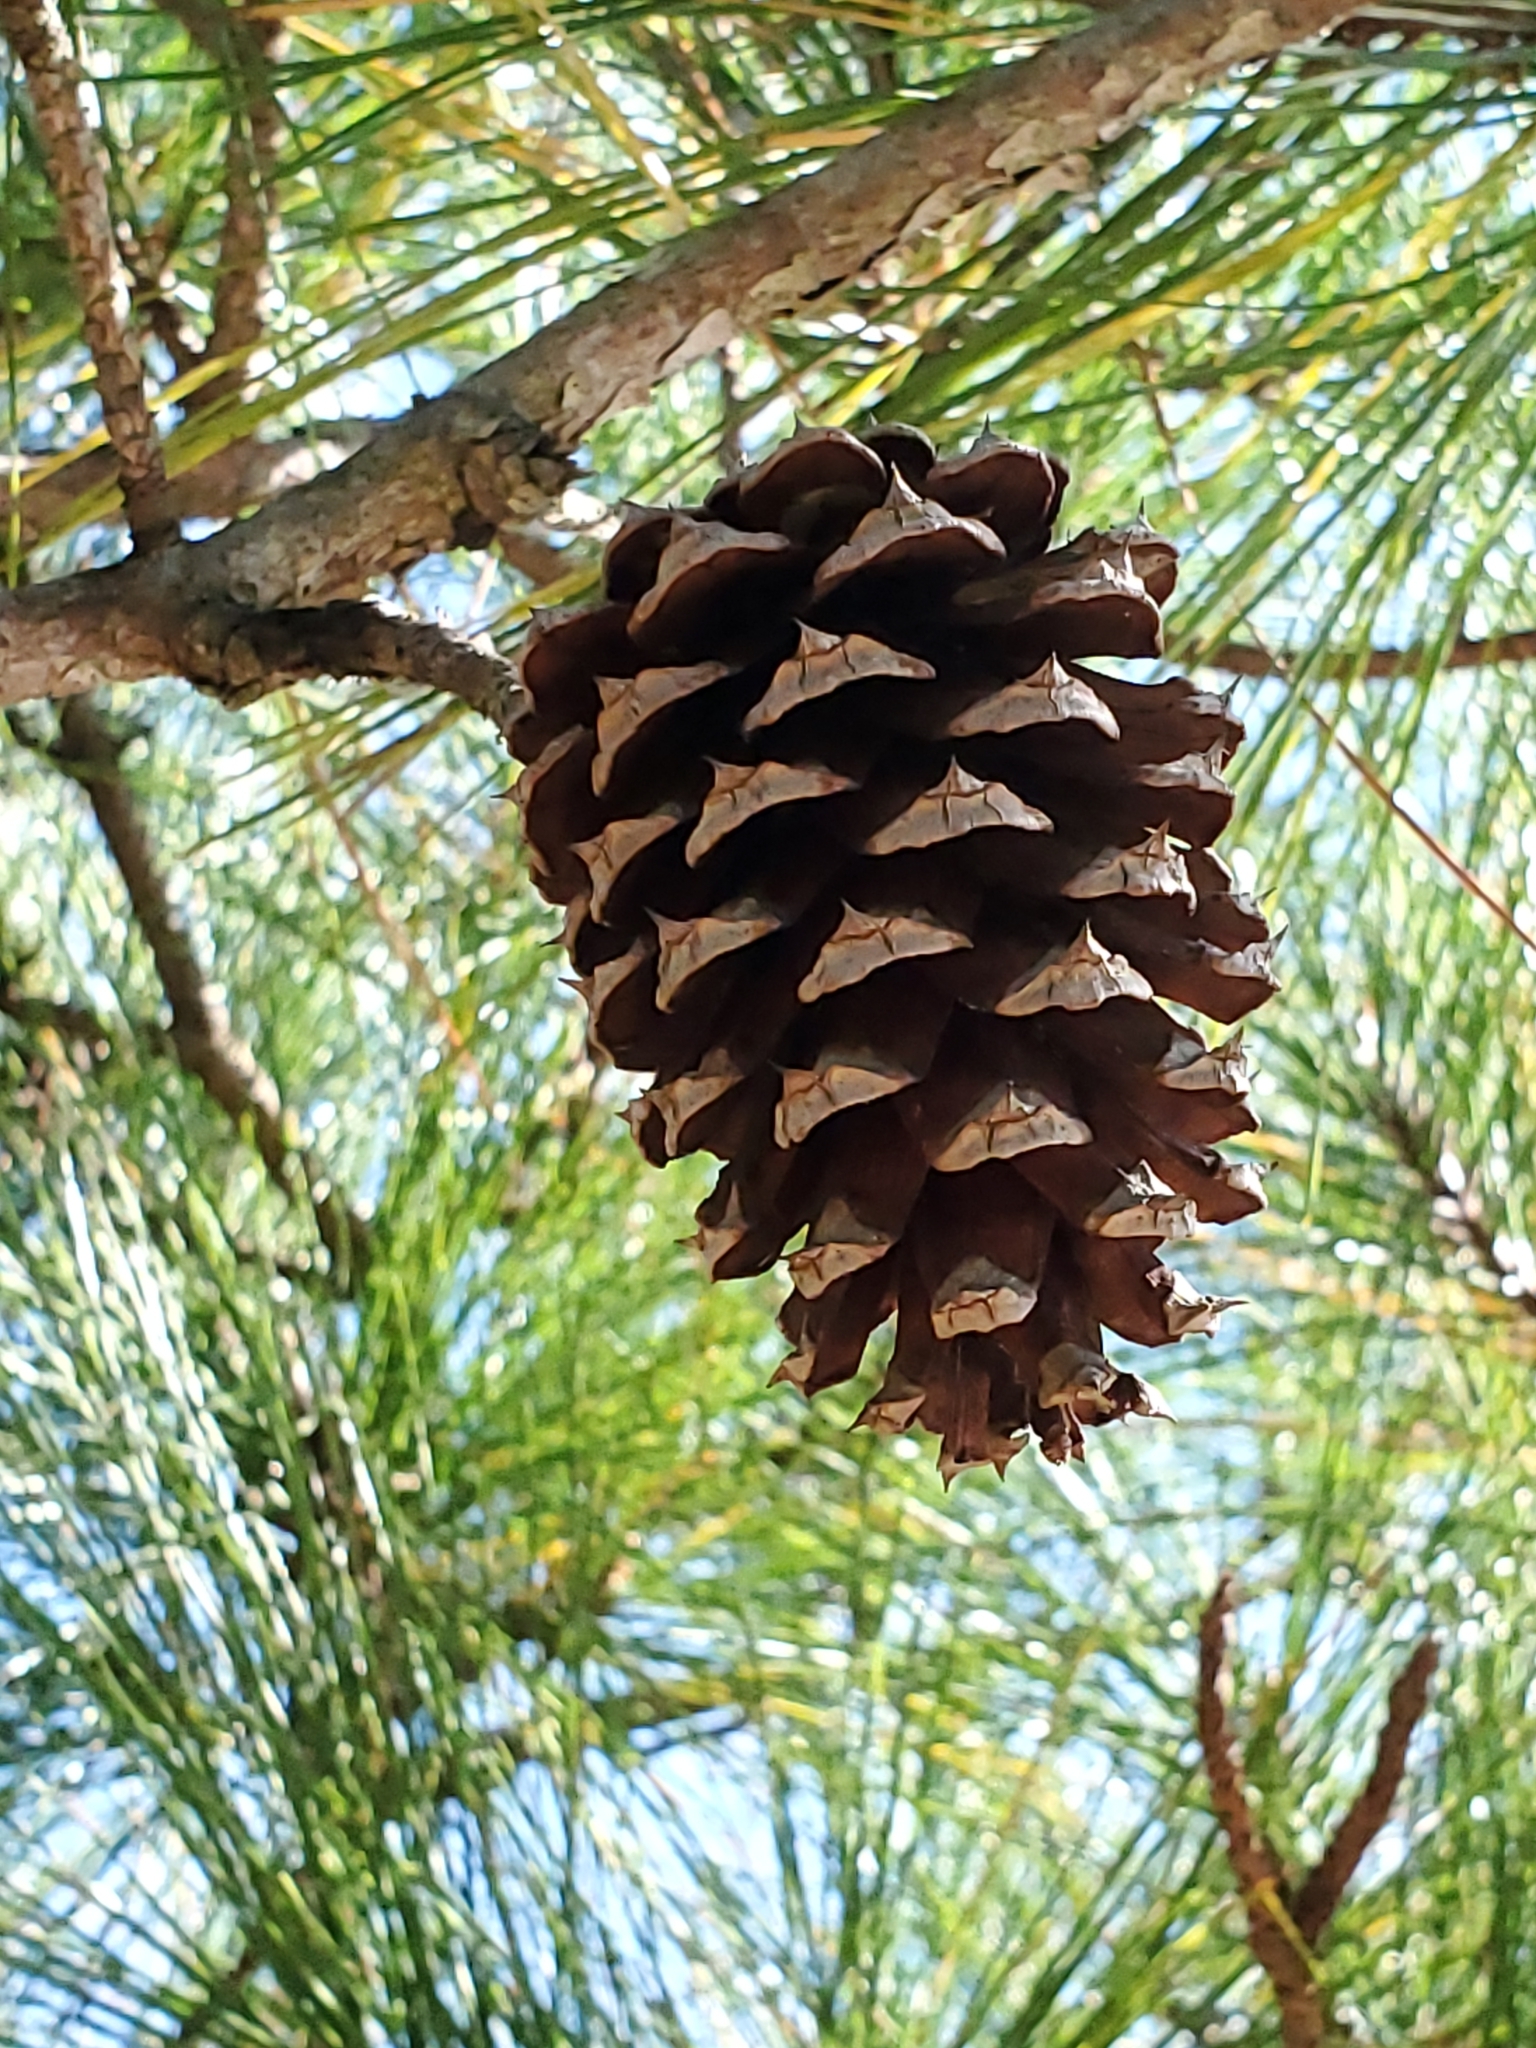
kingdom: Plantae
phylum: Tracheophyta
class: Pinopsida
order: Pinales
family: Pinaceae
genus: Pinus
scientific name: Pinus taeda
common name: Loblolly pine
